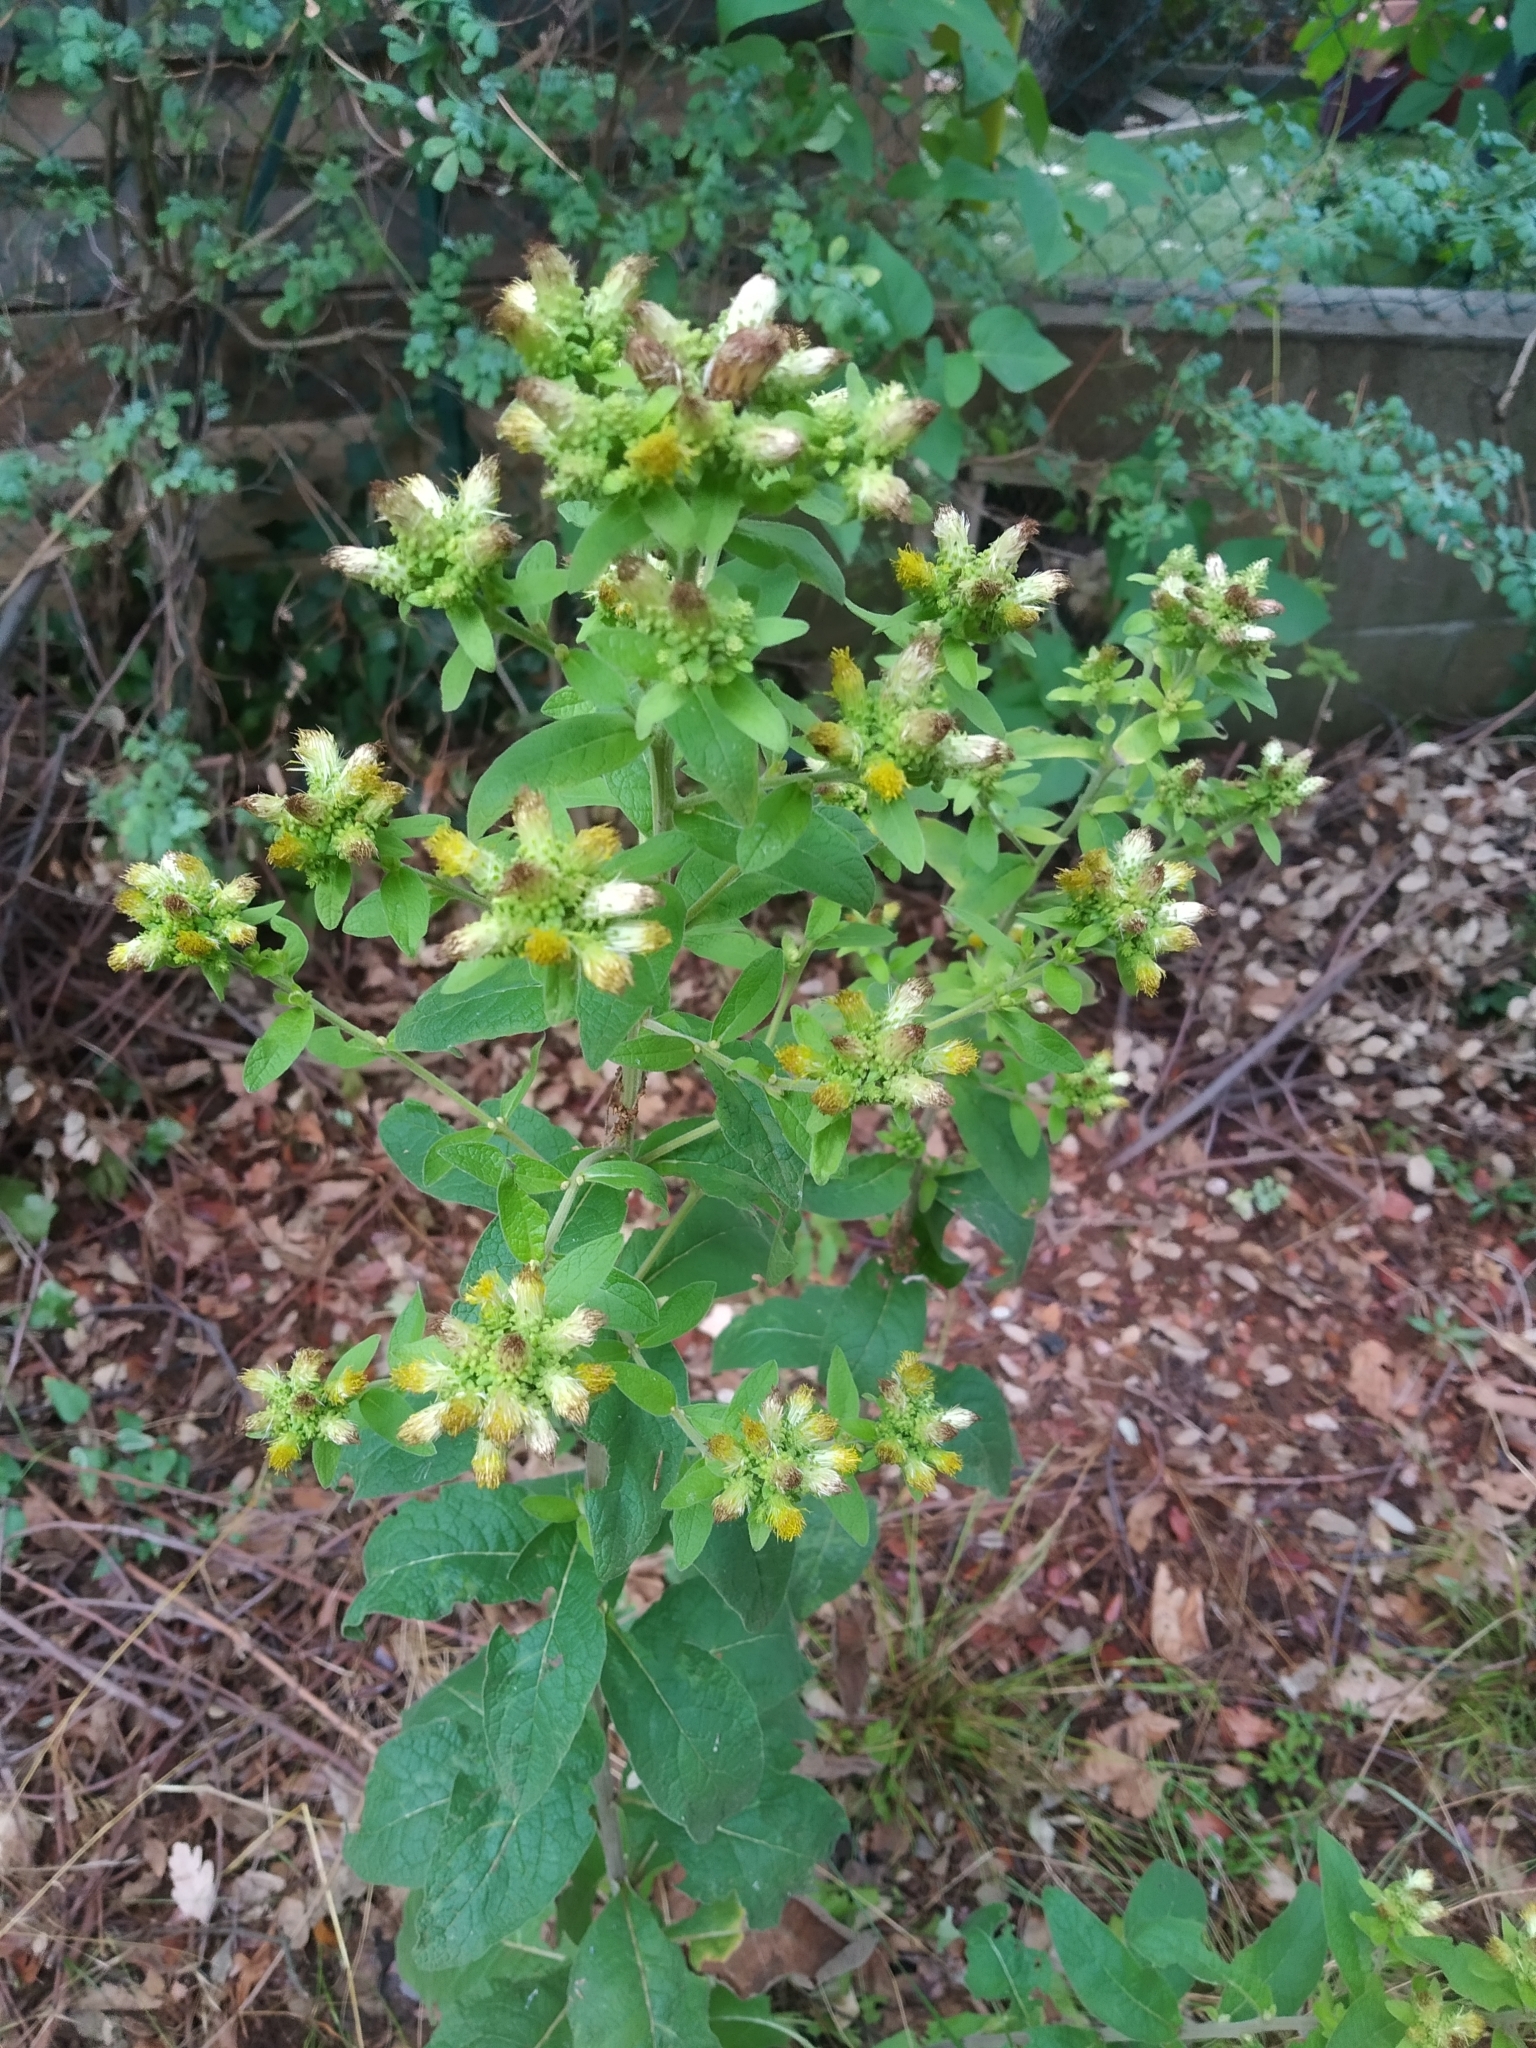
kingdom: Plantae
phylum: Tracheophyta
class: Magnoliopsida
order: Asterales
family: Asteraceae
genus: Pentanema
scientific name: Pentanema squarrosum
